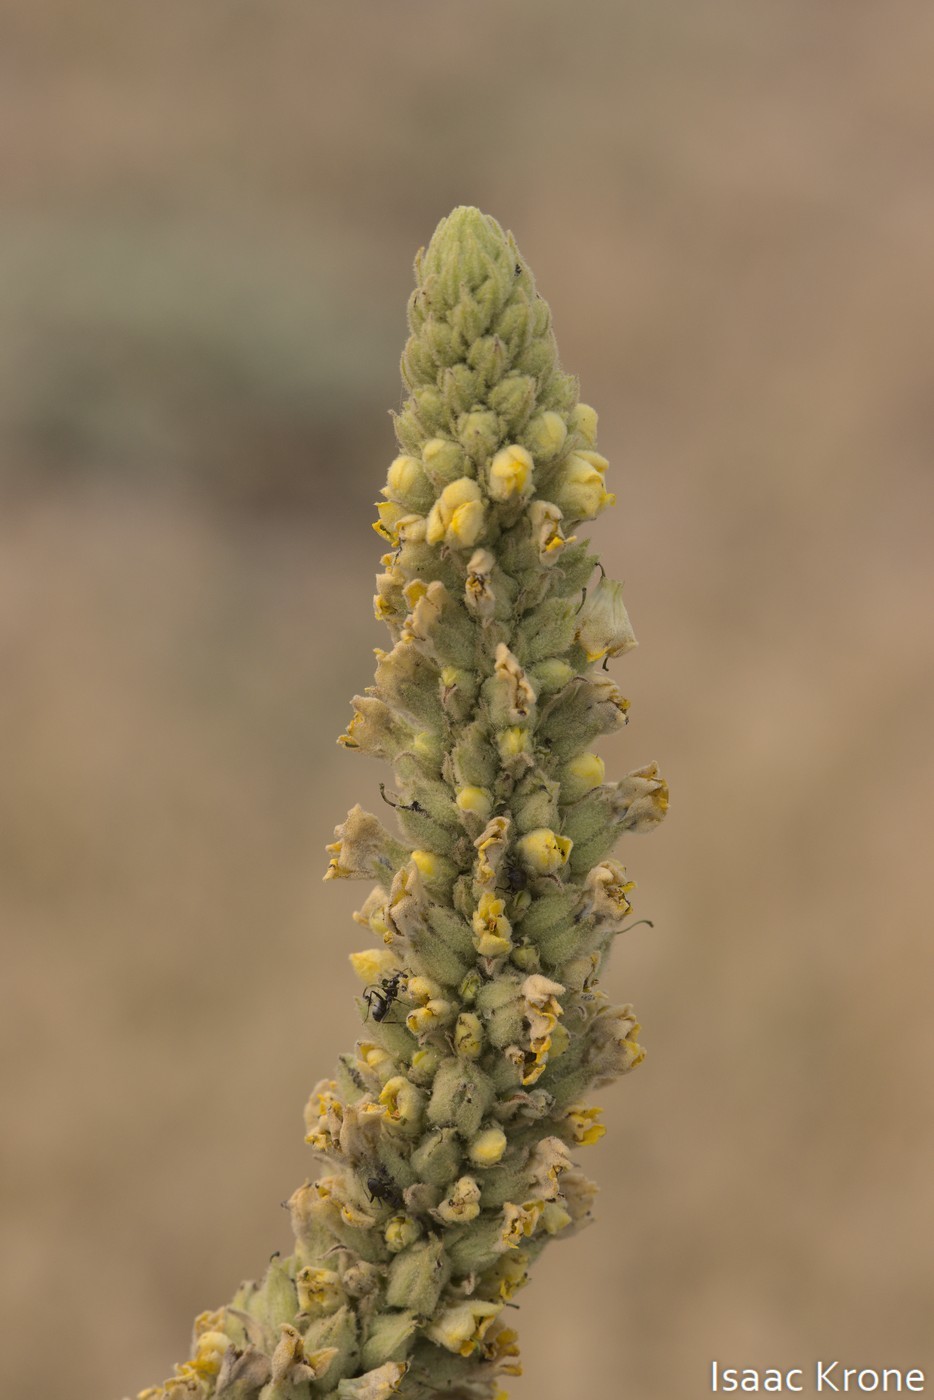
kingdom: Plantae
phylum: Tracheophyta
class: Magnoliopsida
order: Lamiales
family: Scrophulariaceae
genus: Verbascum
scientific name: Verbascum thapsus
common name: Common mullein
